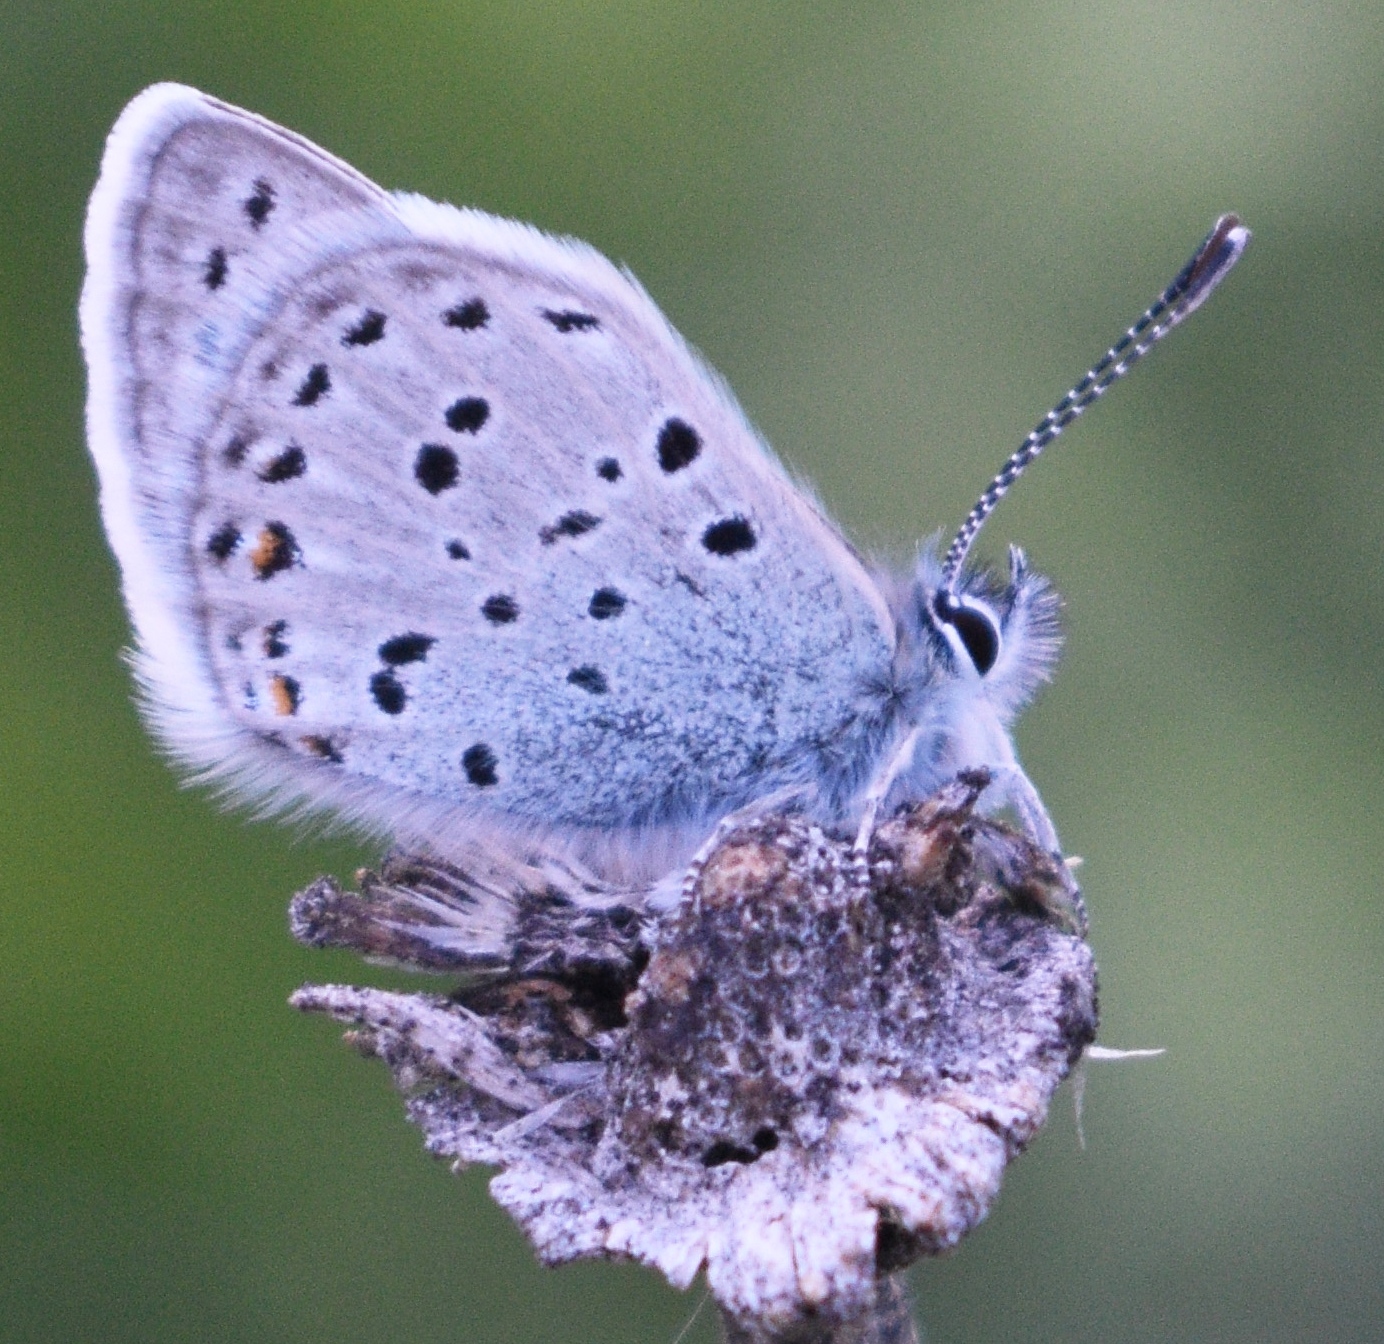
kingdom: Animalia
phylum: Arthropoda
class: Insecta
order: Lepidoptera
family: Lycaenidae
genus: Icaricia
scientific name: Icaricia saepiolus
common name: Greenish blue
